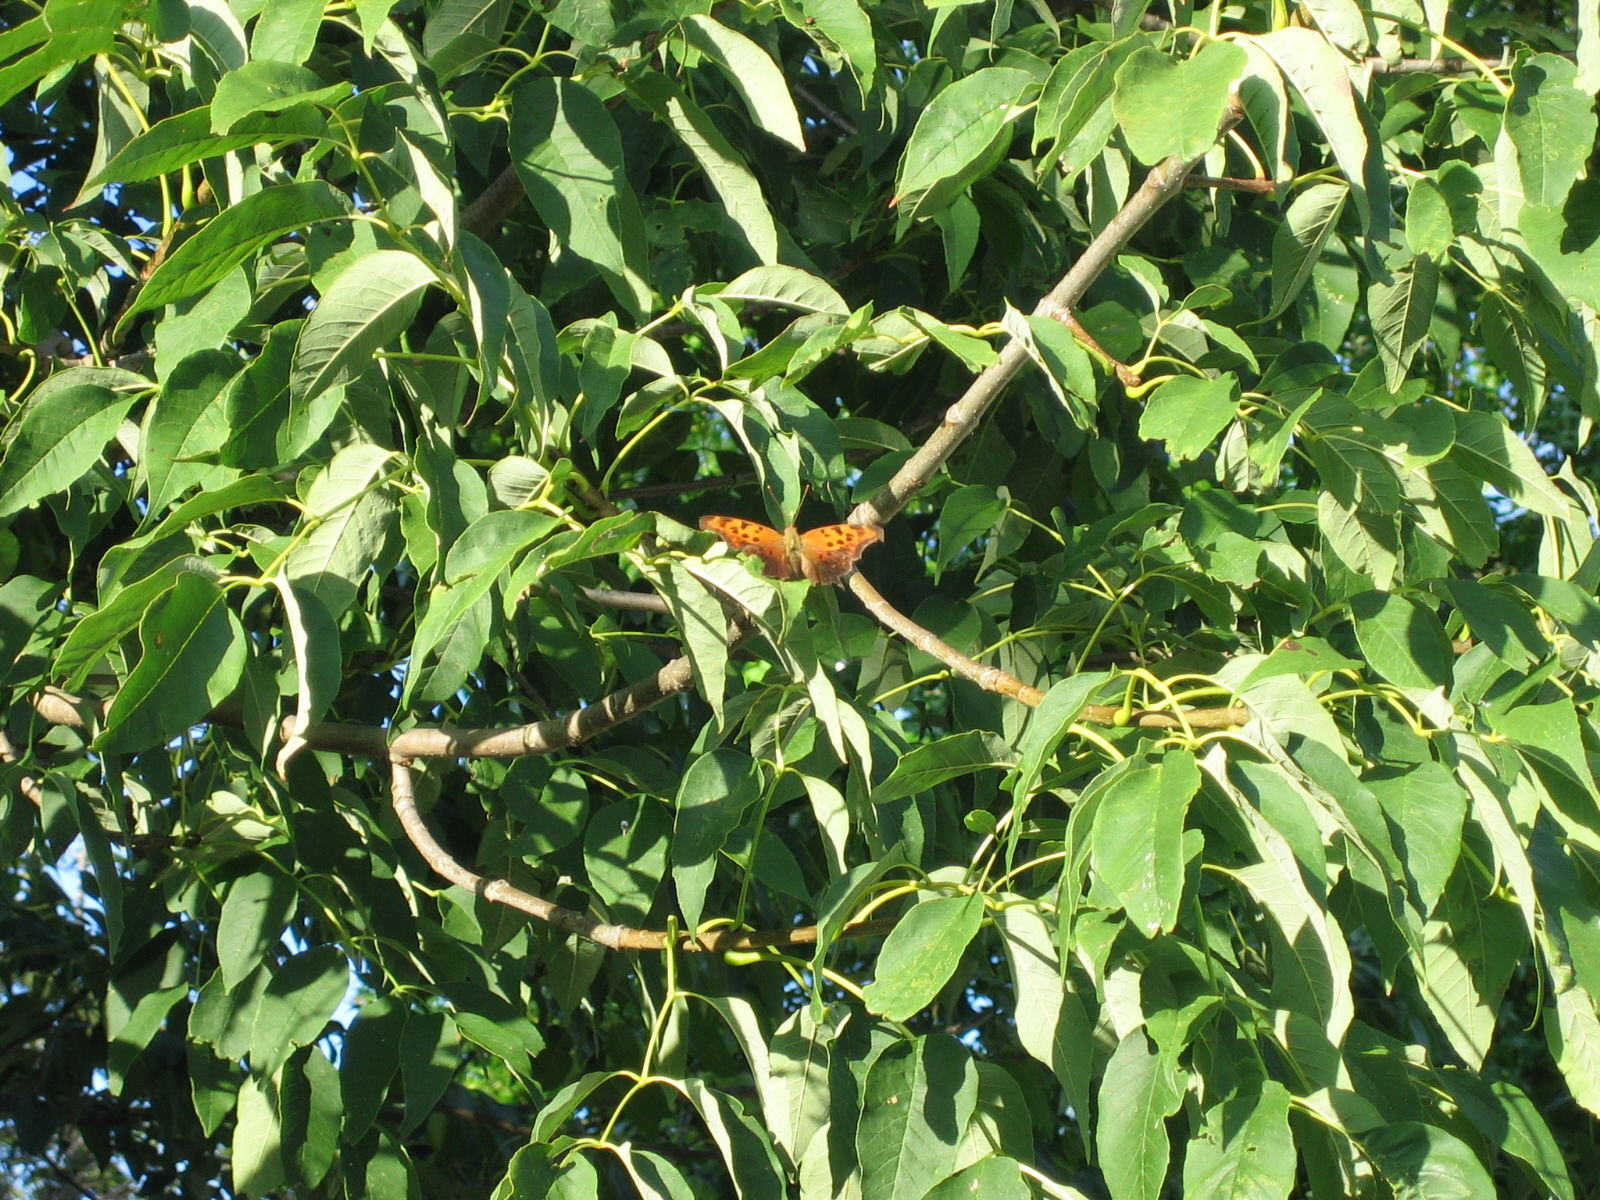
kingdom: Animalia
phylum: Arthropoda
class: Insecta
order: Lepidoptera
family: Nymphalidae
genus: Polygonia
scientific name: Polygonia interrogationis
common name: Question mark
